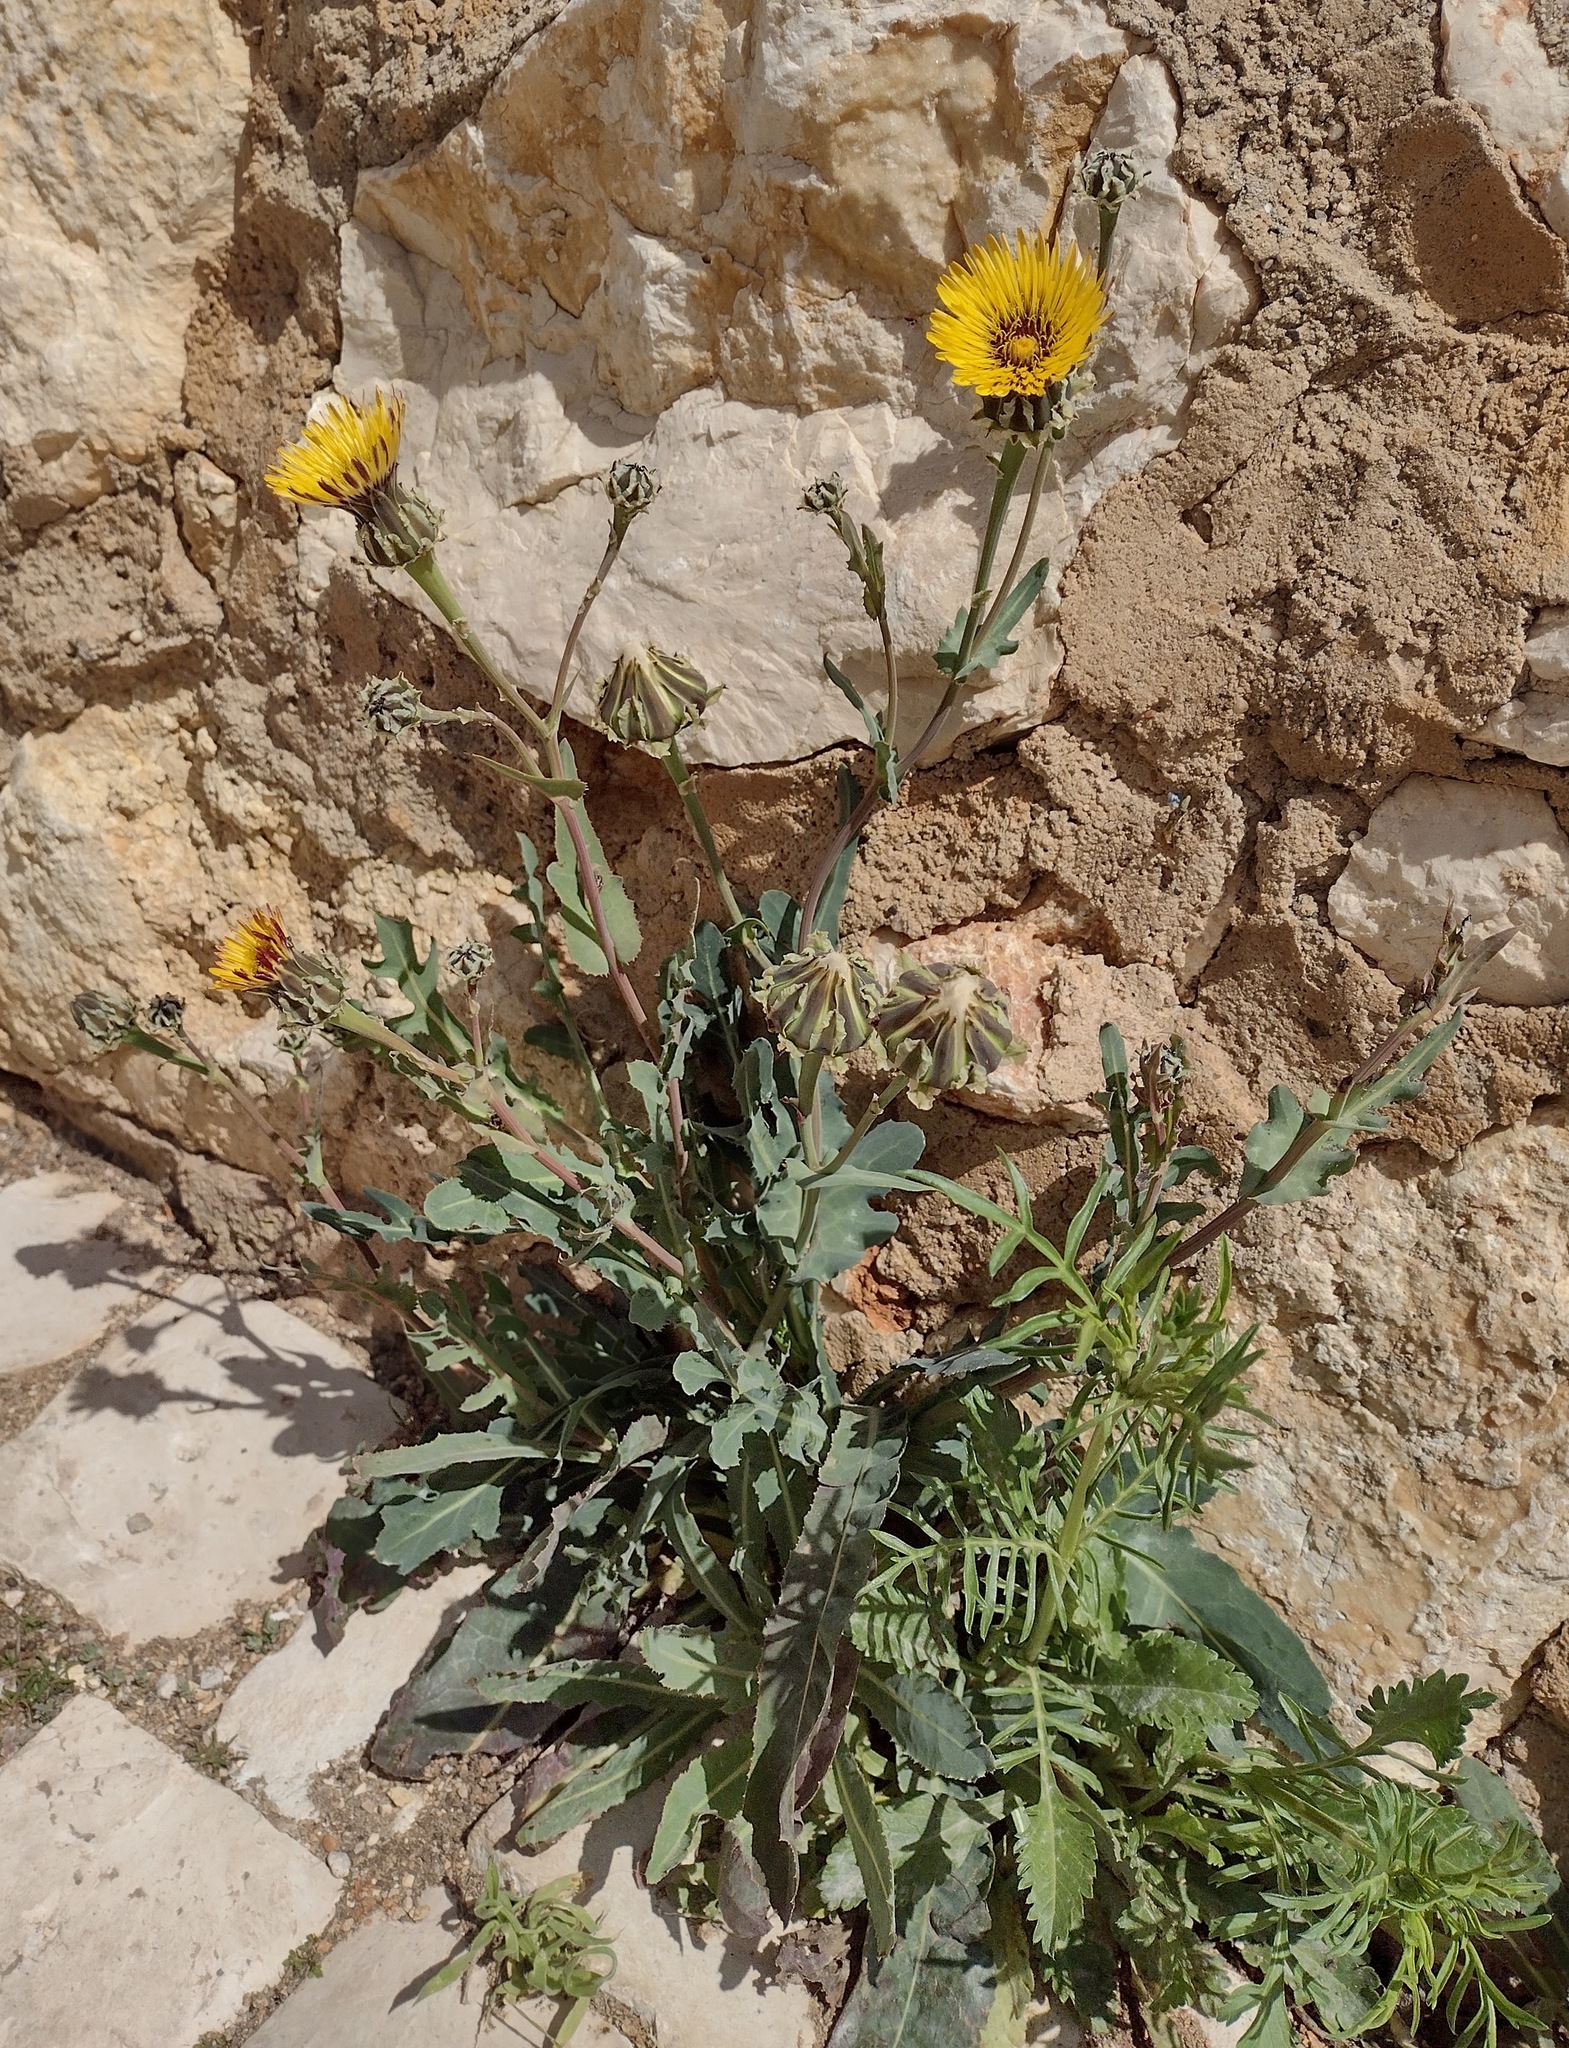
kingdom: Plantae
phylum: Tracheophyta
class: Magnoliopsida
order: Asterales
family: Asteraceae
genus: Reichardia
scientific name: Reichardia gaditana
